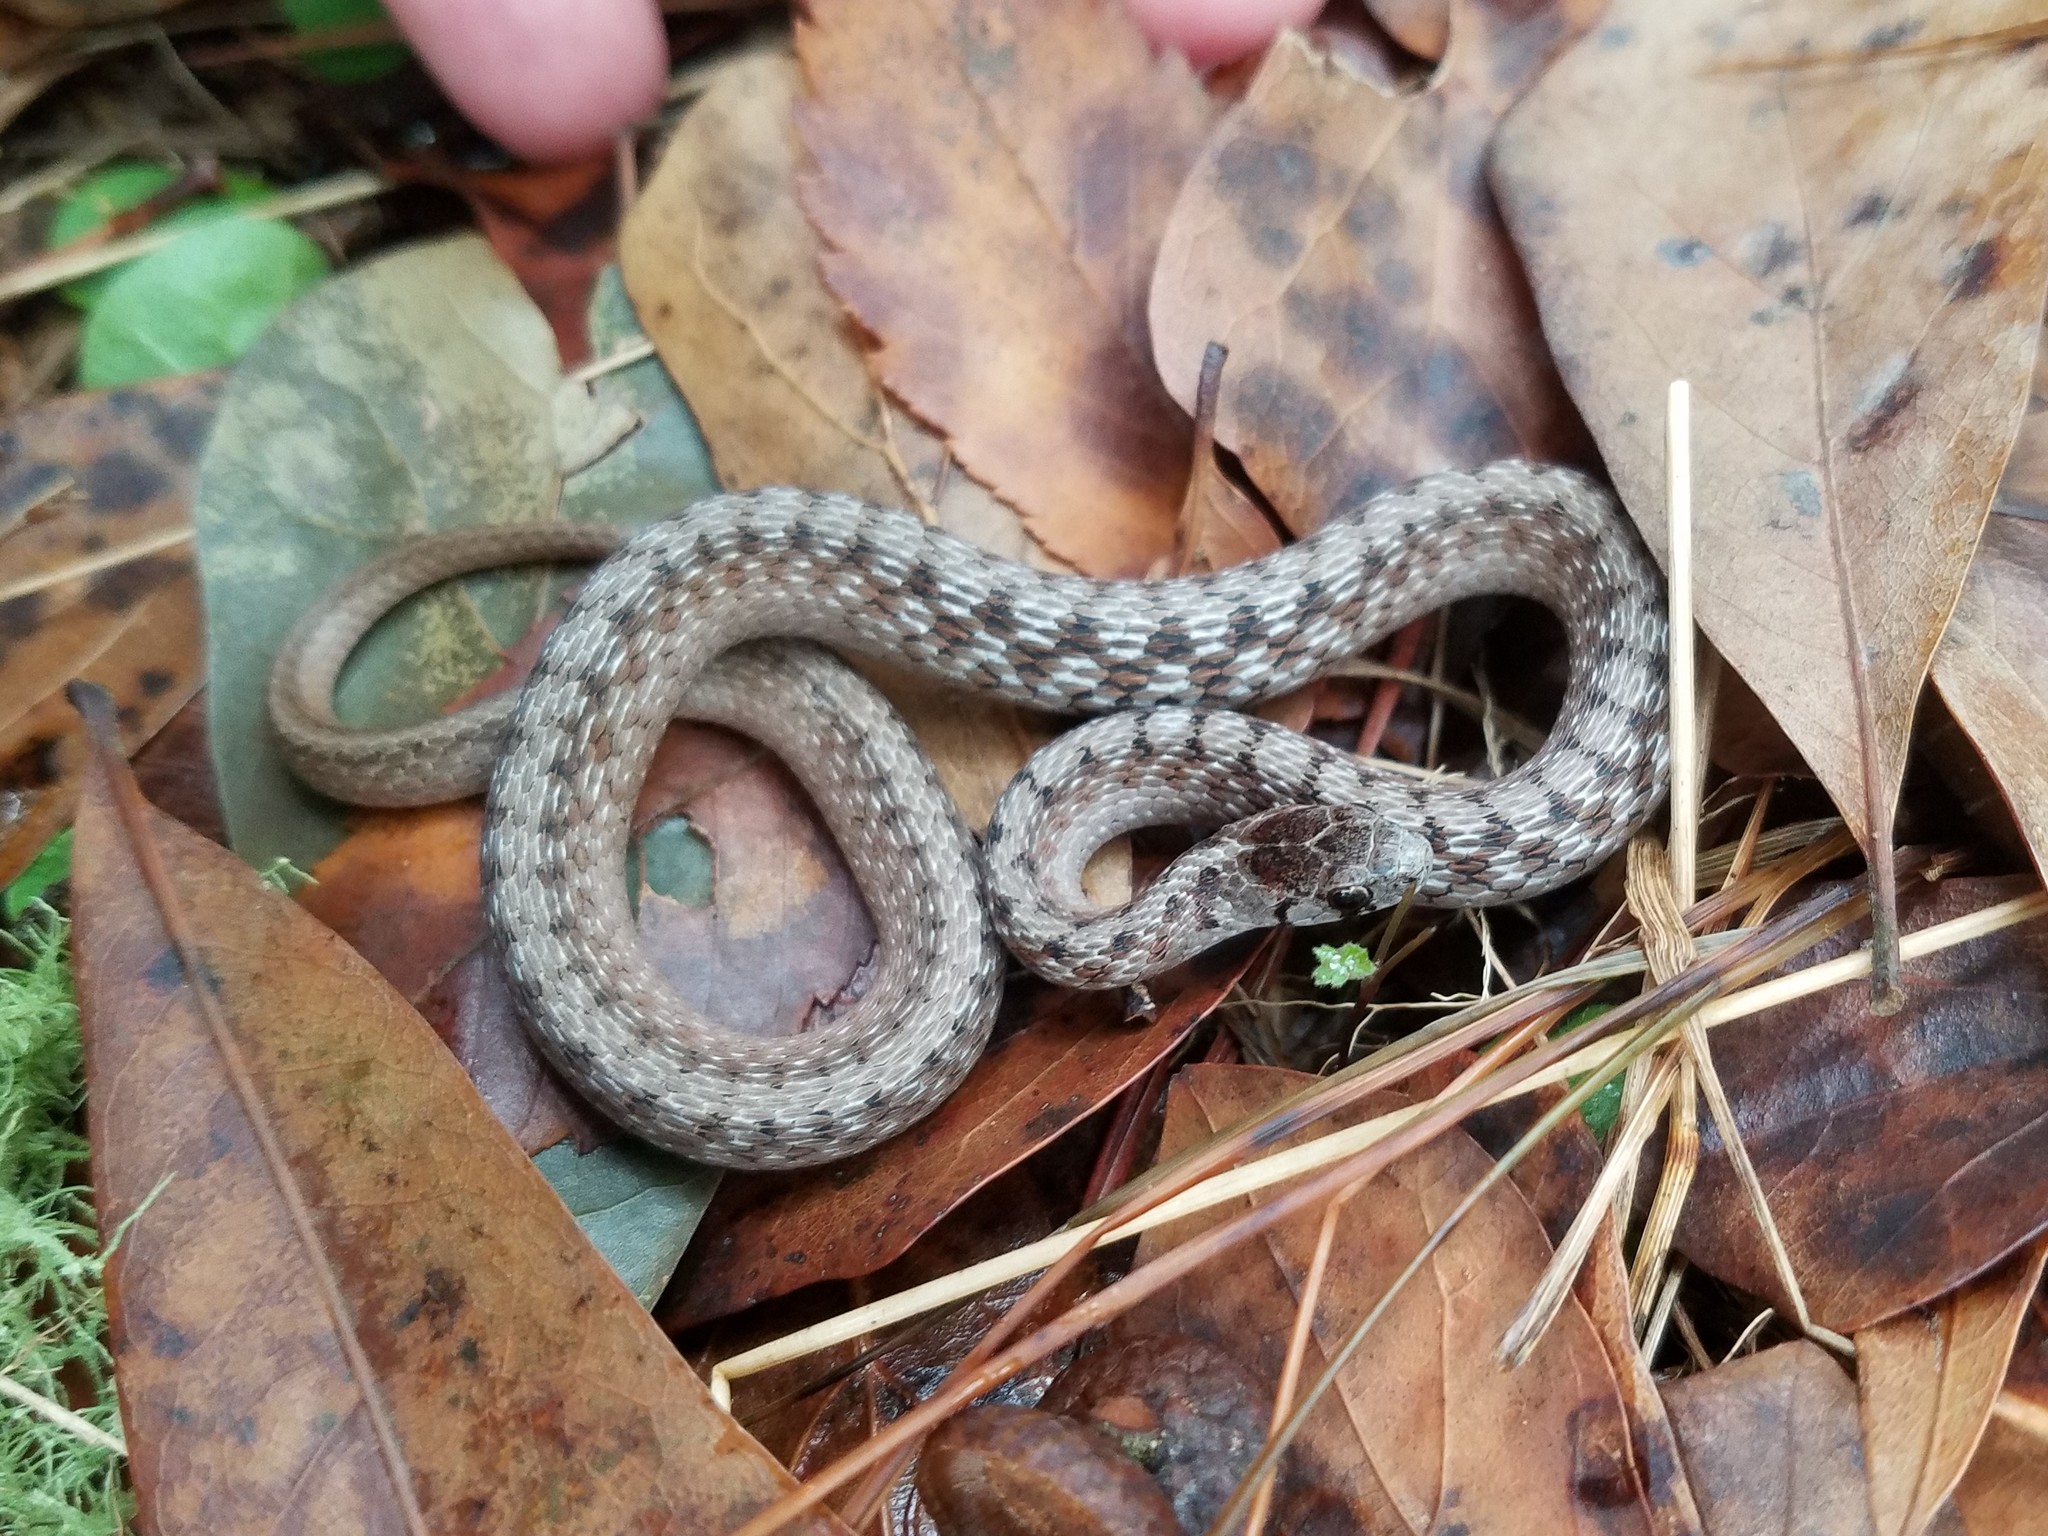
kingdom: Animalia
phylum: Chordata
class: Squamata
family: Colubridae
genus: Storeria
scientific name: Storeria dekayi
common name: (dekay’s) brown snake
